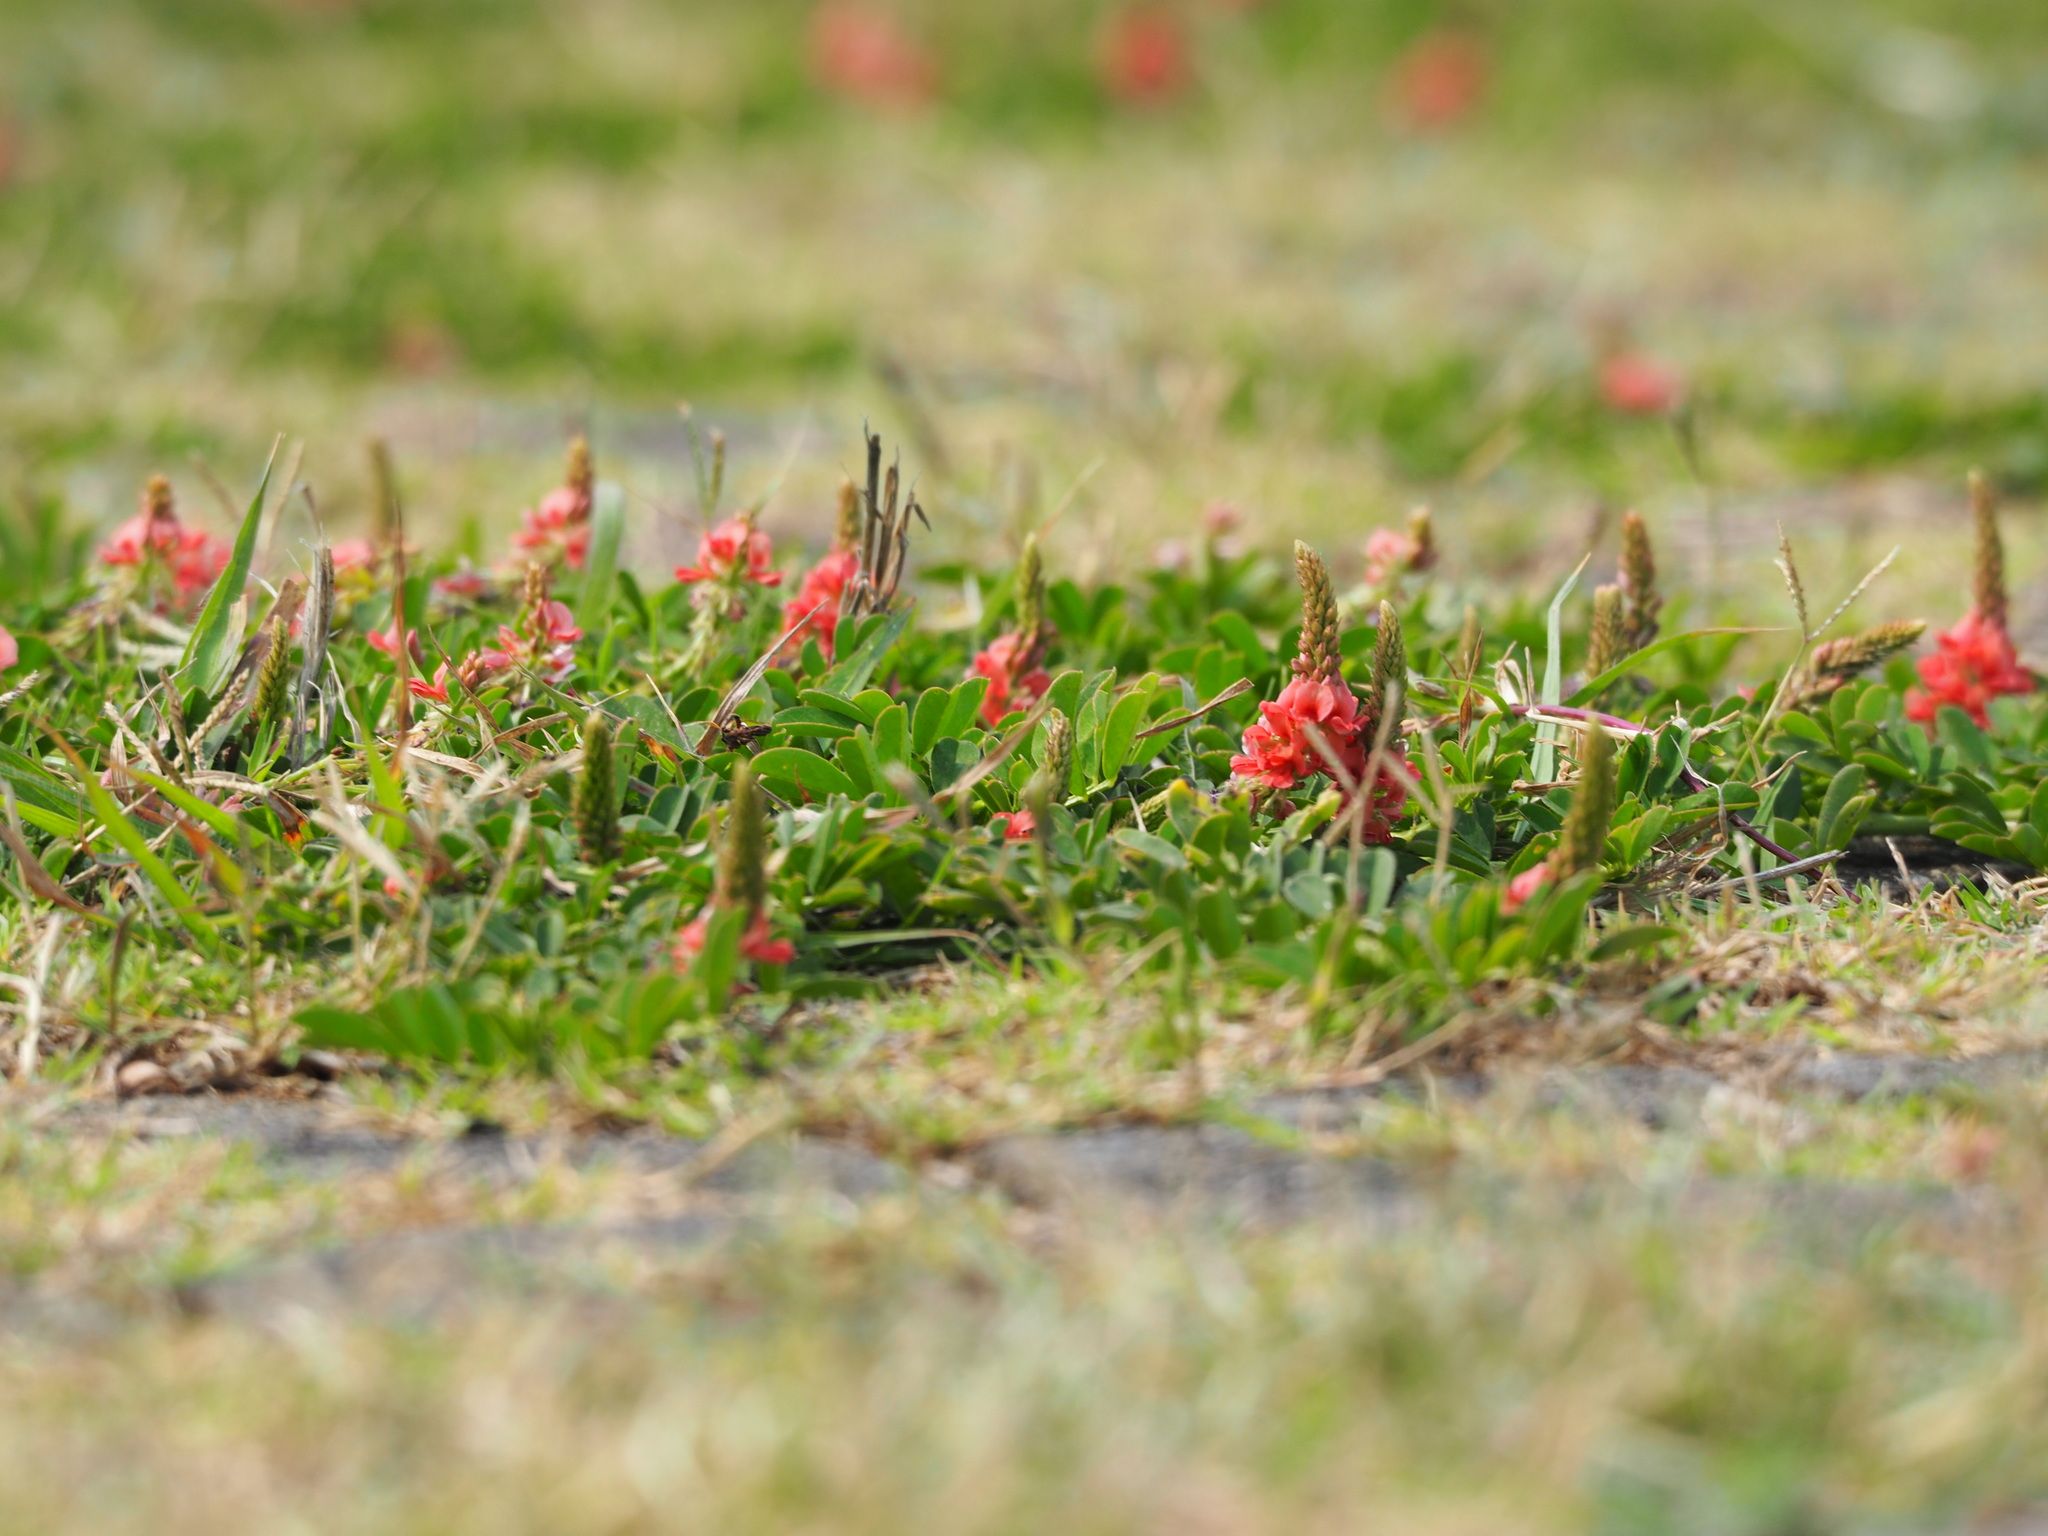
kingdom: Plantae
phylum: Tracheophyta
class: Magnoliopsida
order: Fabales
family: Fabaceae
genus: Indigofera
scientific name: Indigofera spicata
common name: Creeping indigo
